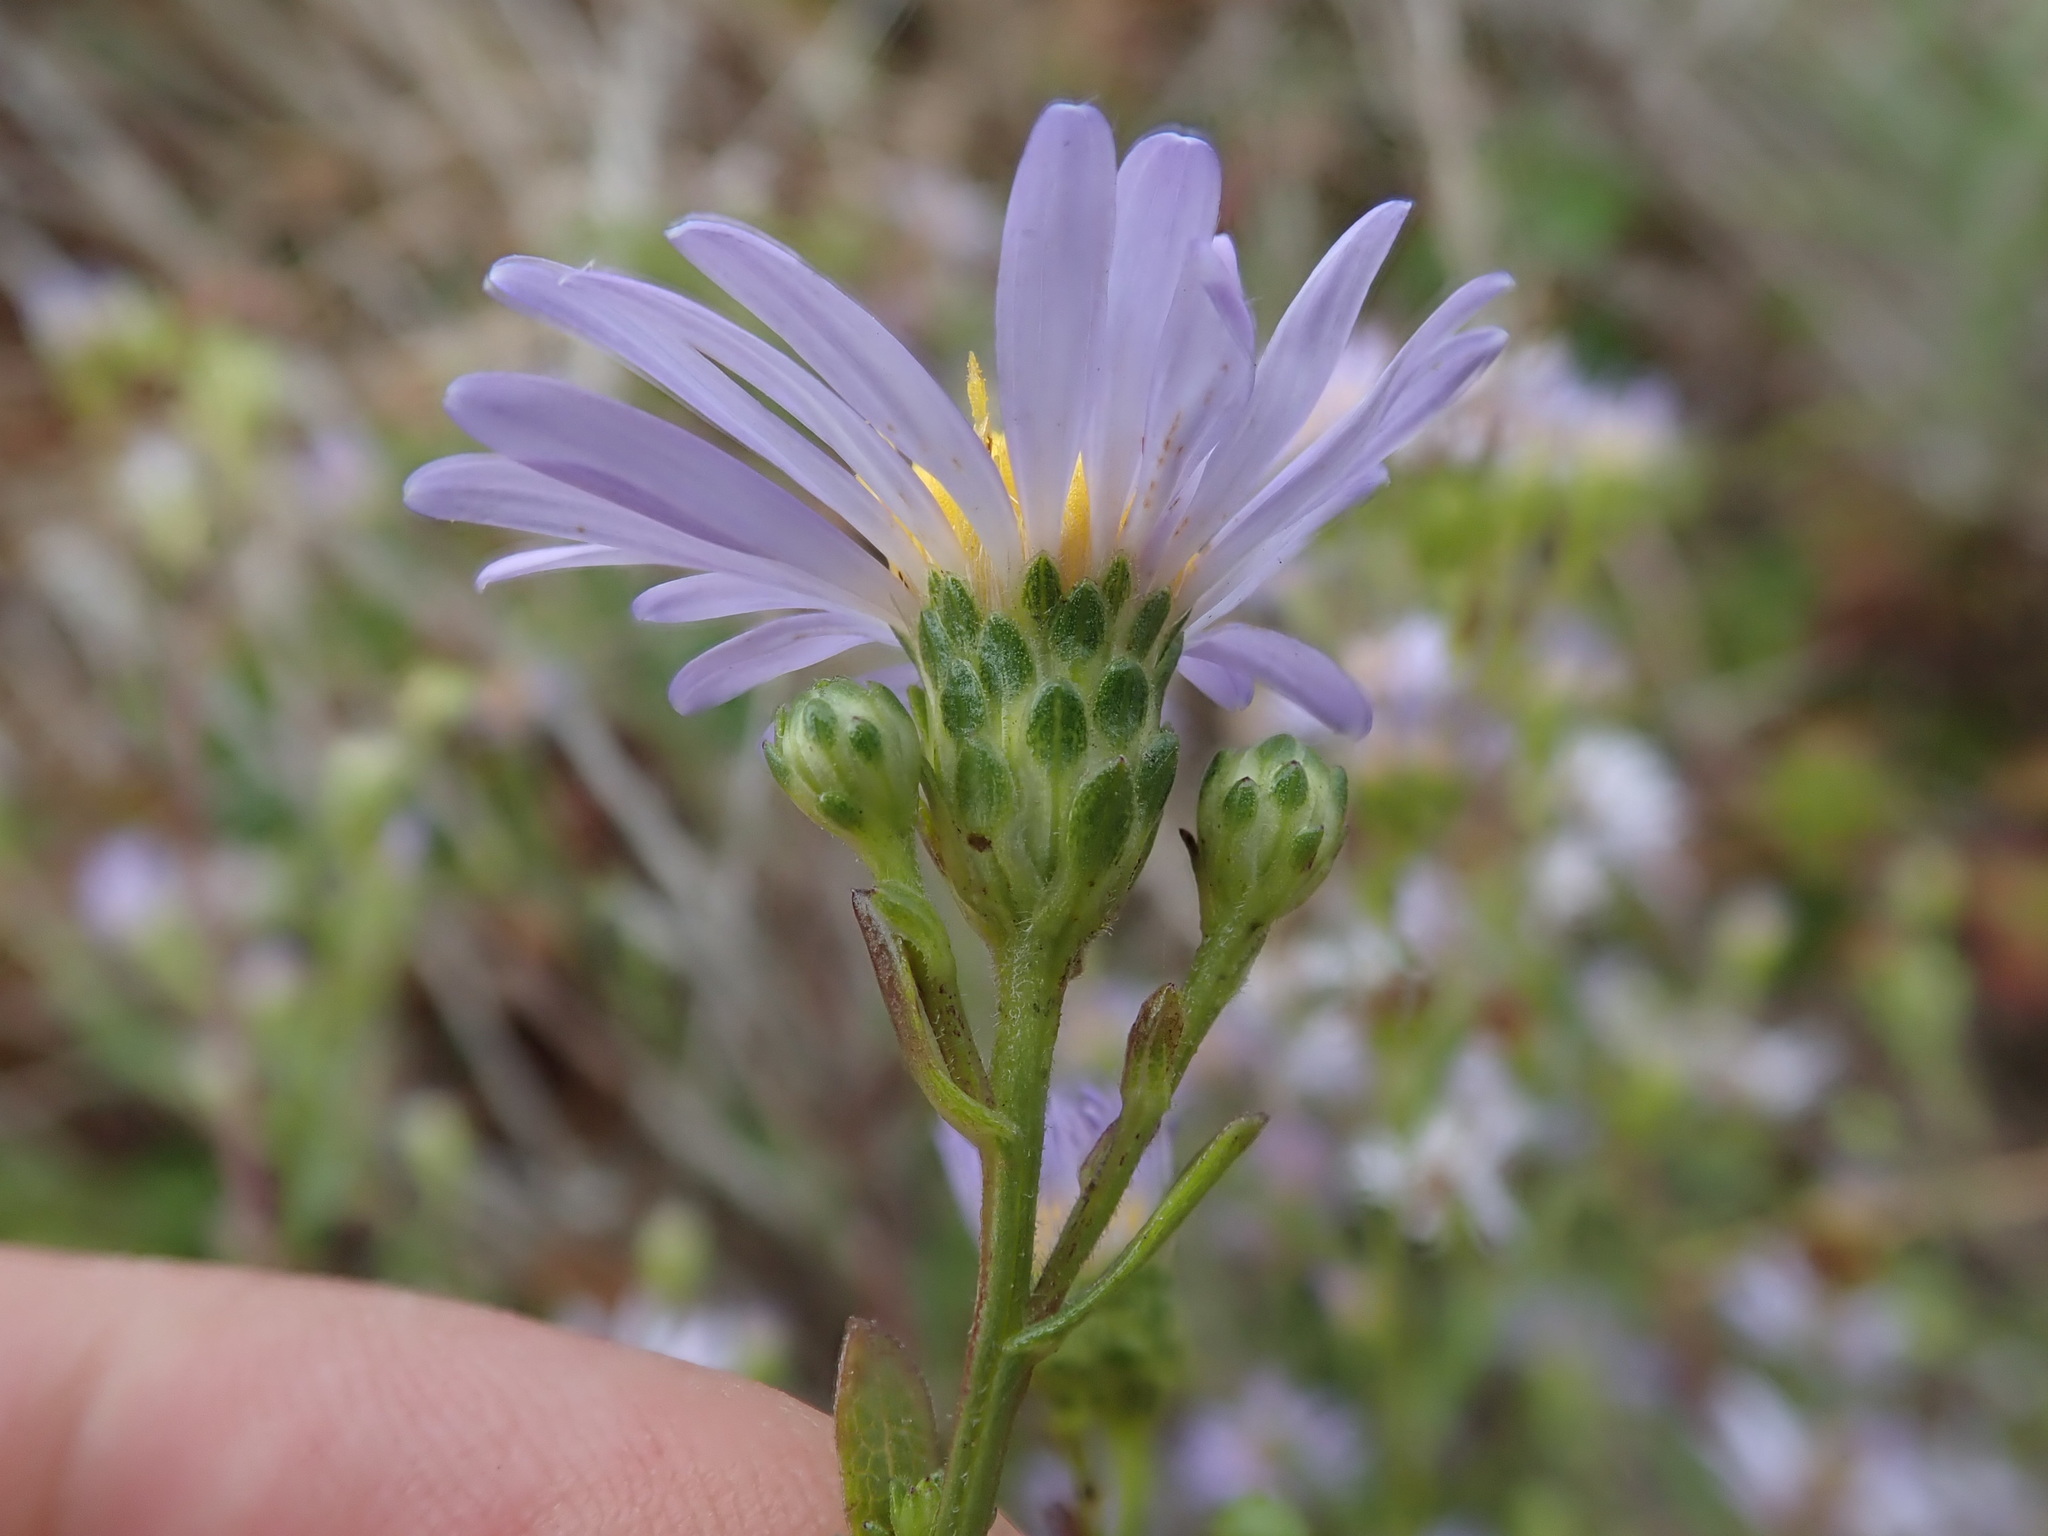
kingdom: Plantae
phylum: Tracheophyta
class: Magnoliopsida
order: Asterales
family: Asteraceae
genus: Symphyotrichum
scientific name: Symphyotrichum chilense
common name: Pacific aster
